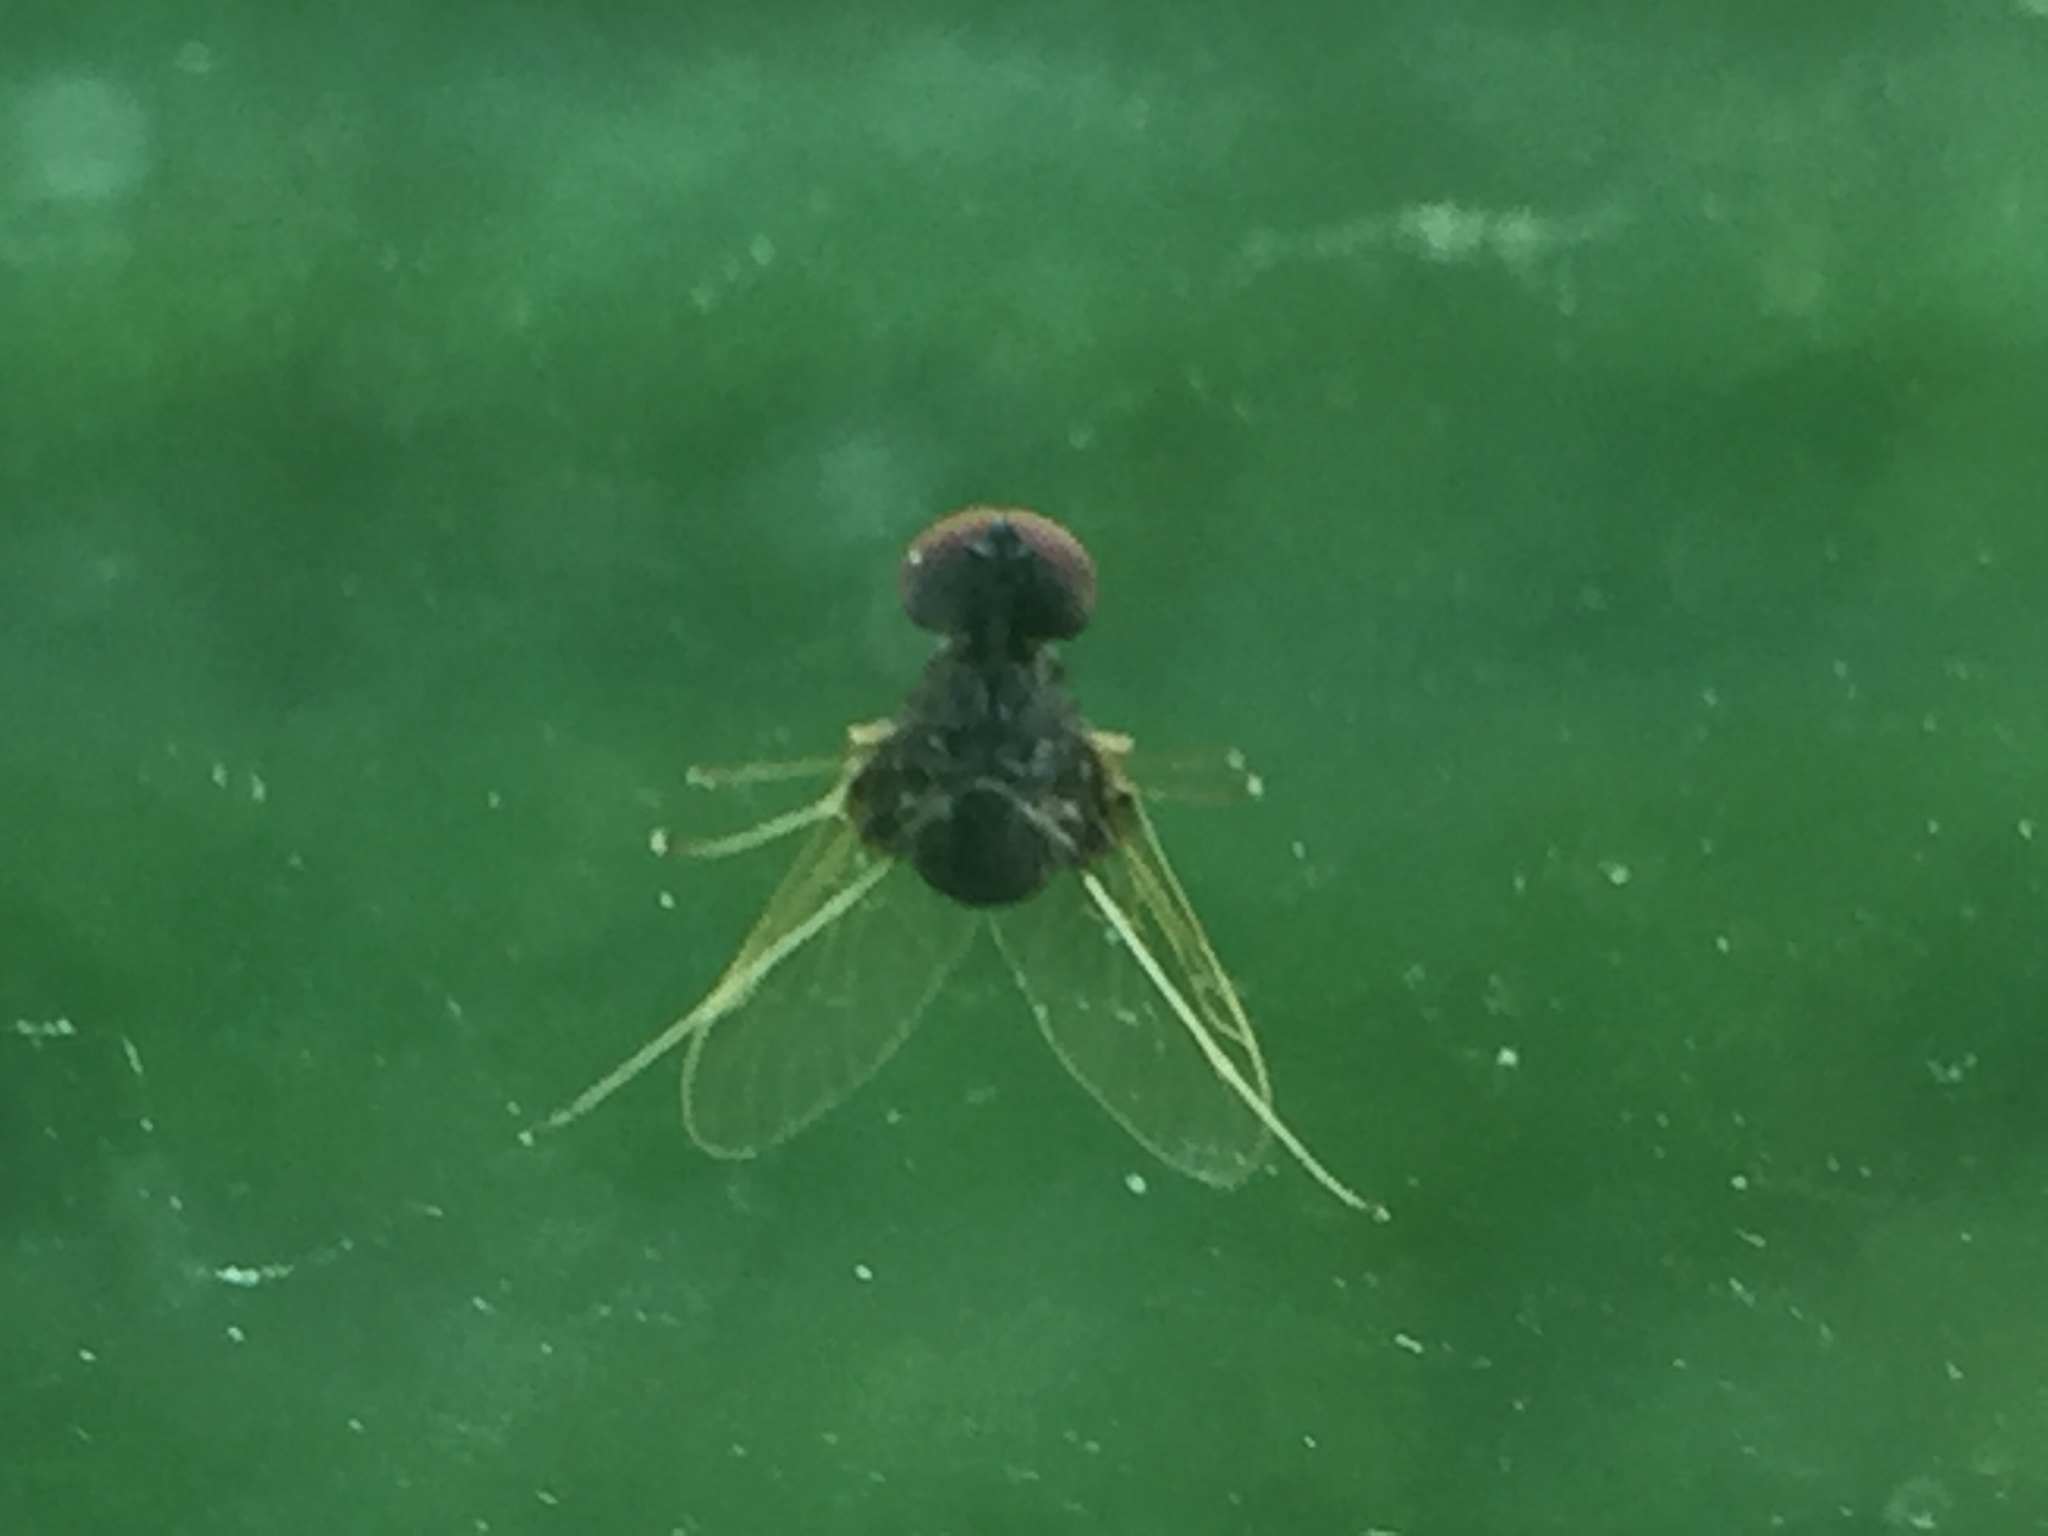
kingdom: Animalia
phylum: Arthropoda
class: Insecta
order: Diptera
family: Rhagionidae
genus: Chrysopilus
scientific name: Chrysopilus basilaris
